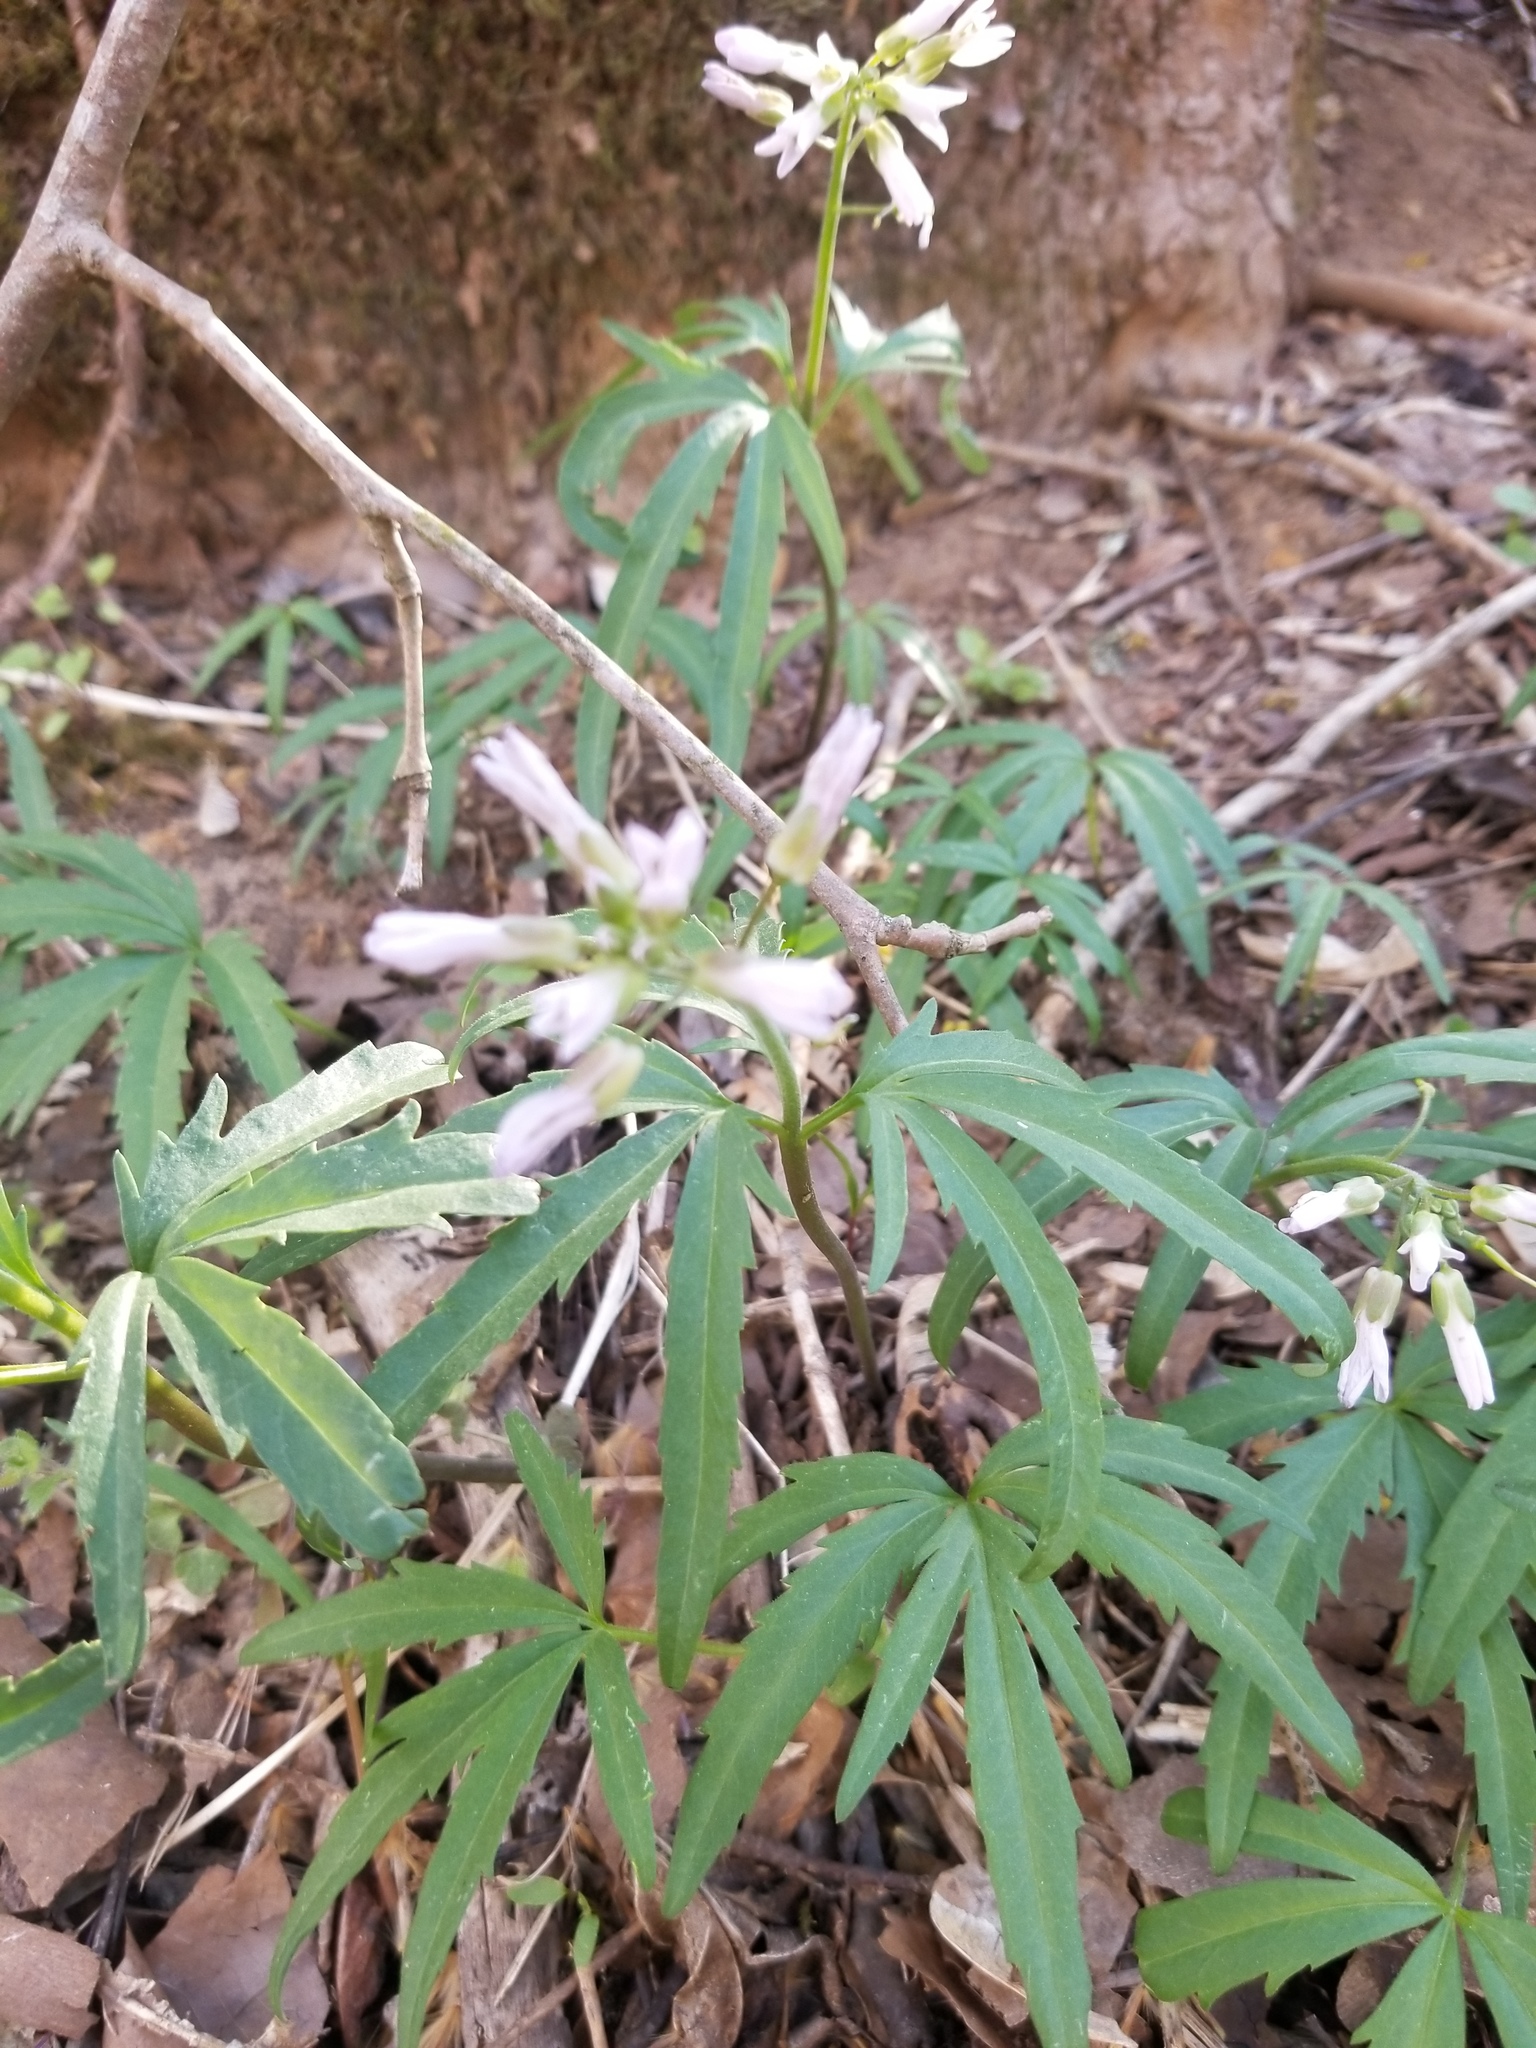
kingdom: Plantae
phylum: Tracheophyta
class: Magnoliopsida
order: Brassicales
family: Brassicaceae
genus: Cardamine
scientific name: Cardamine concatenata
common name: Cut-leaf toothcup
